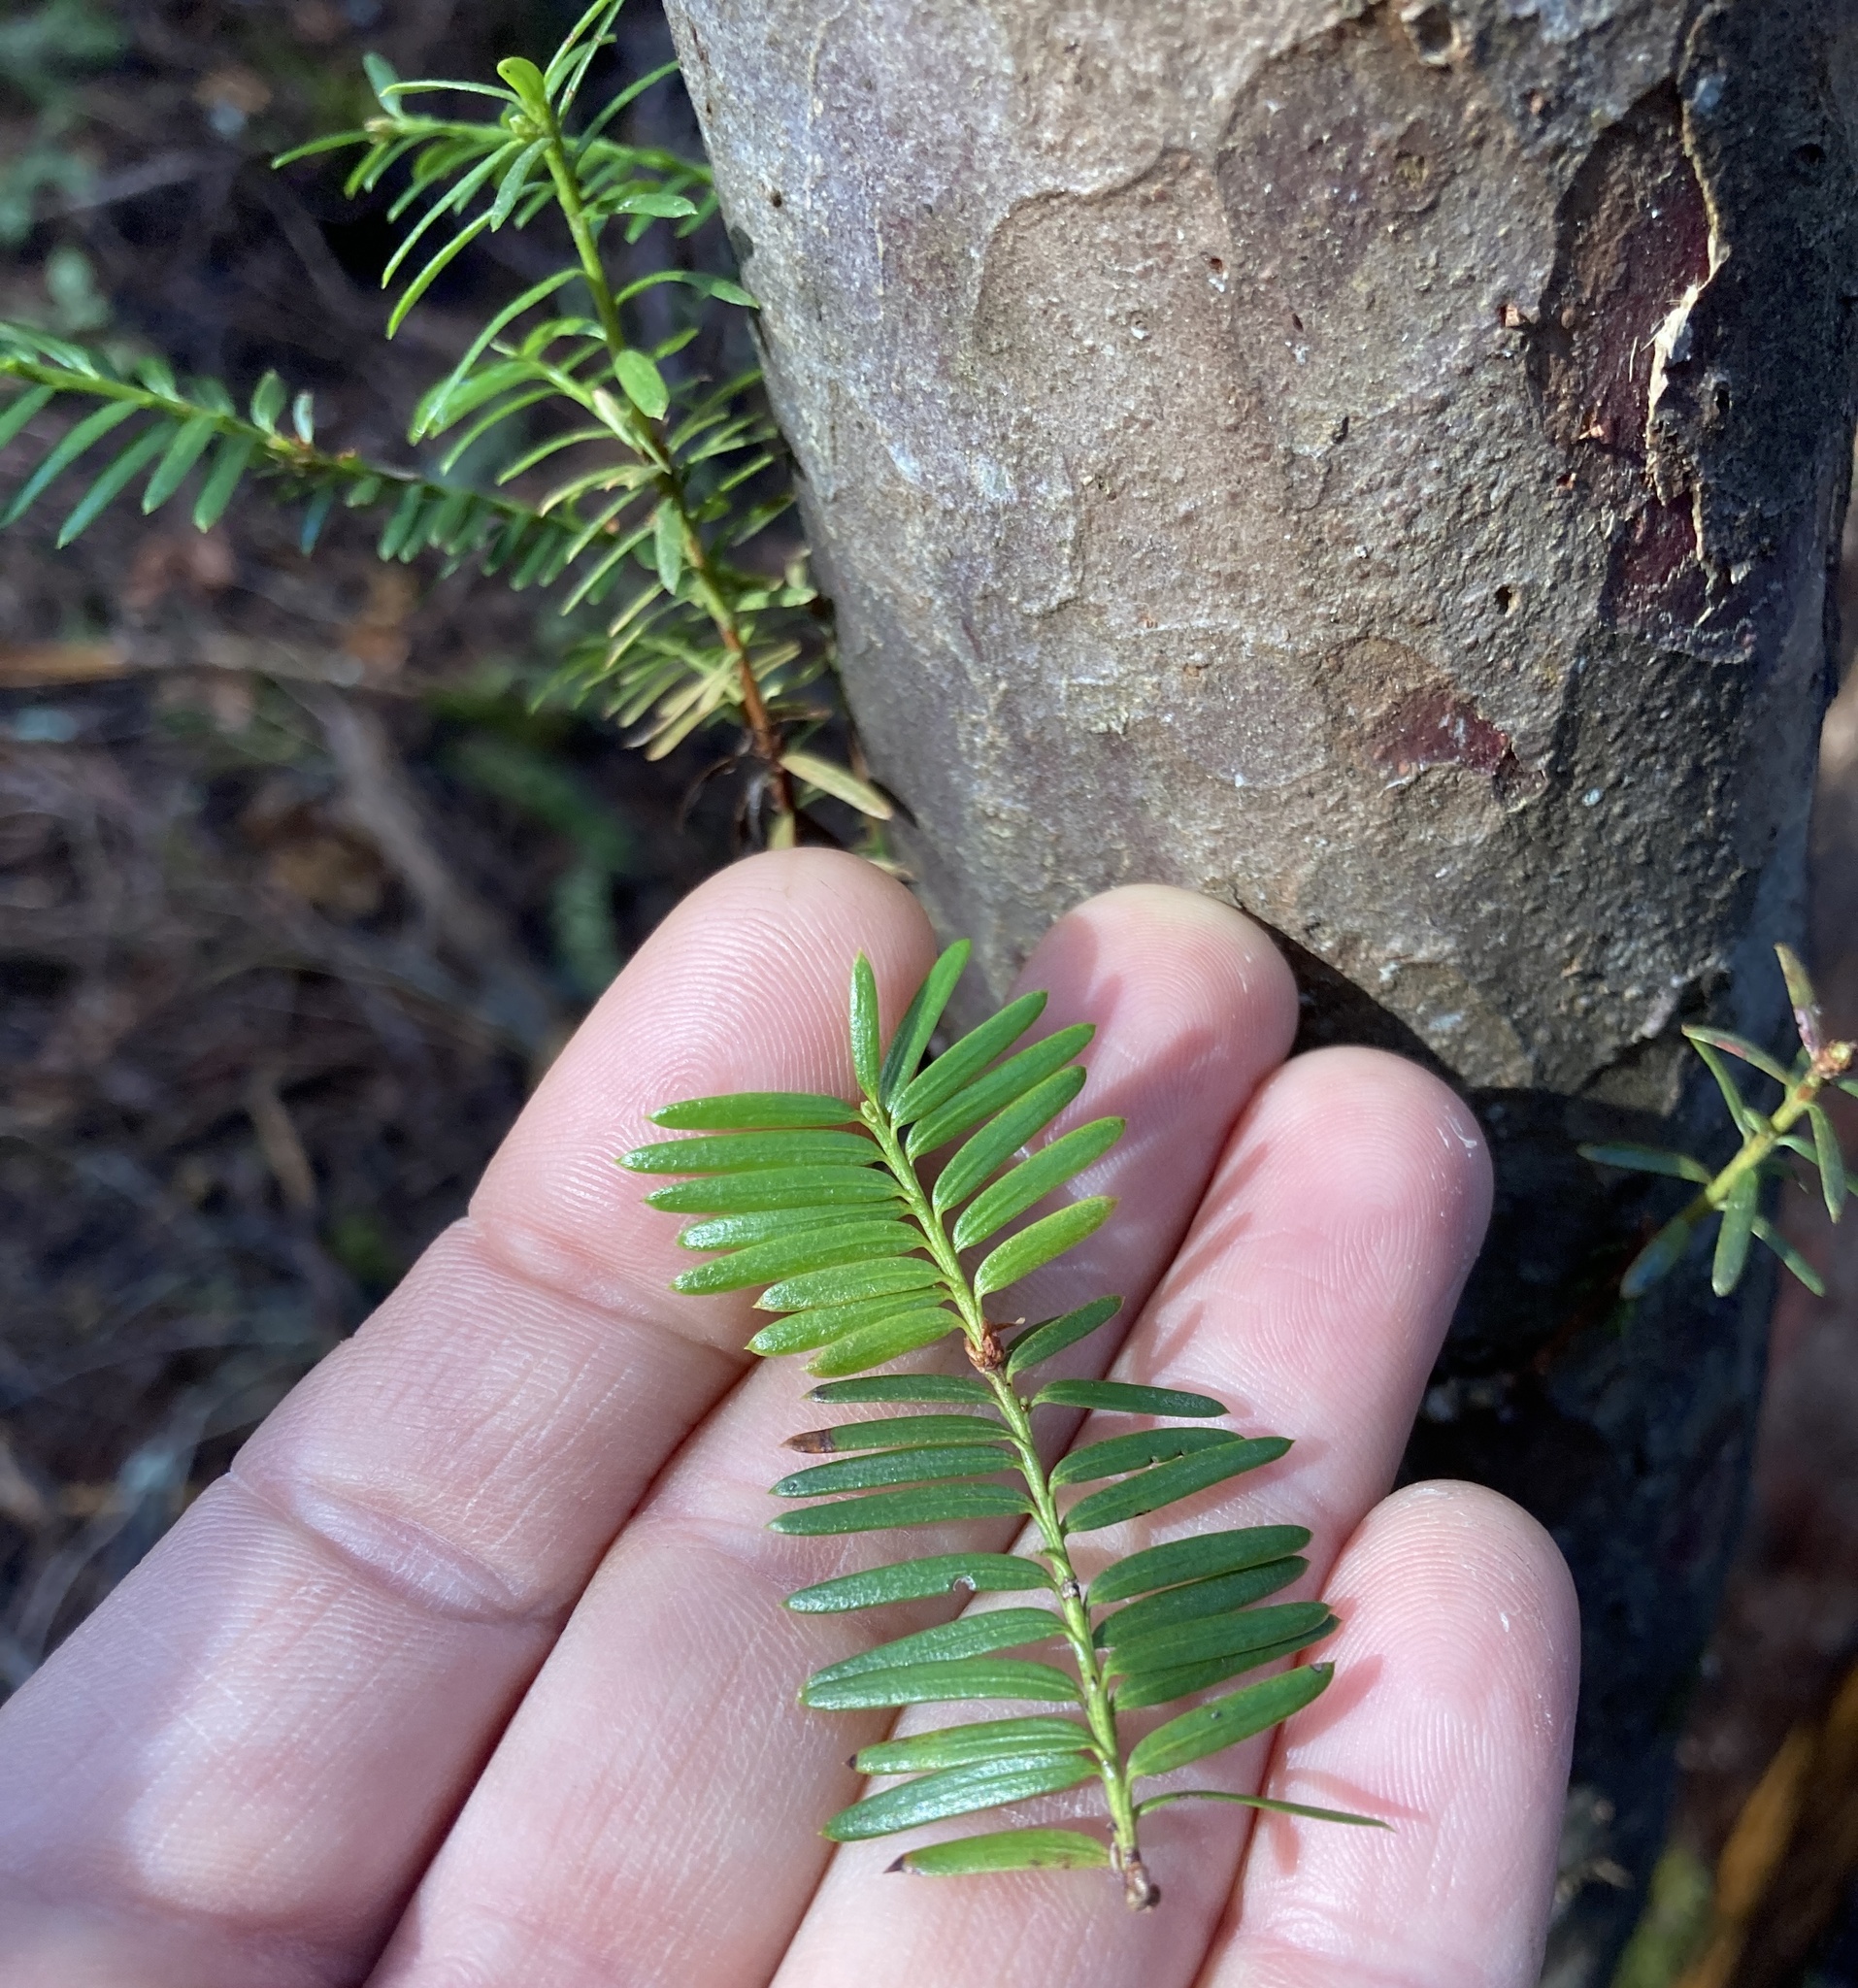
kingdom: Plantae
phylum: Tracheophyta
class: Pinopsida
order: Pinales
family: Taxaceae
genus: Taxus
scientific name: Taxus brevifolia
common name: Pacific yew
